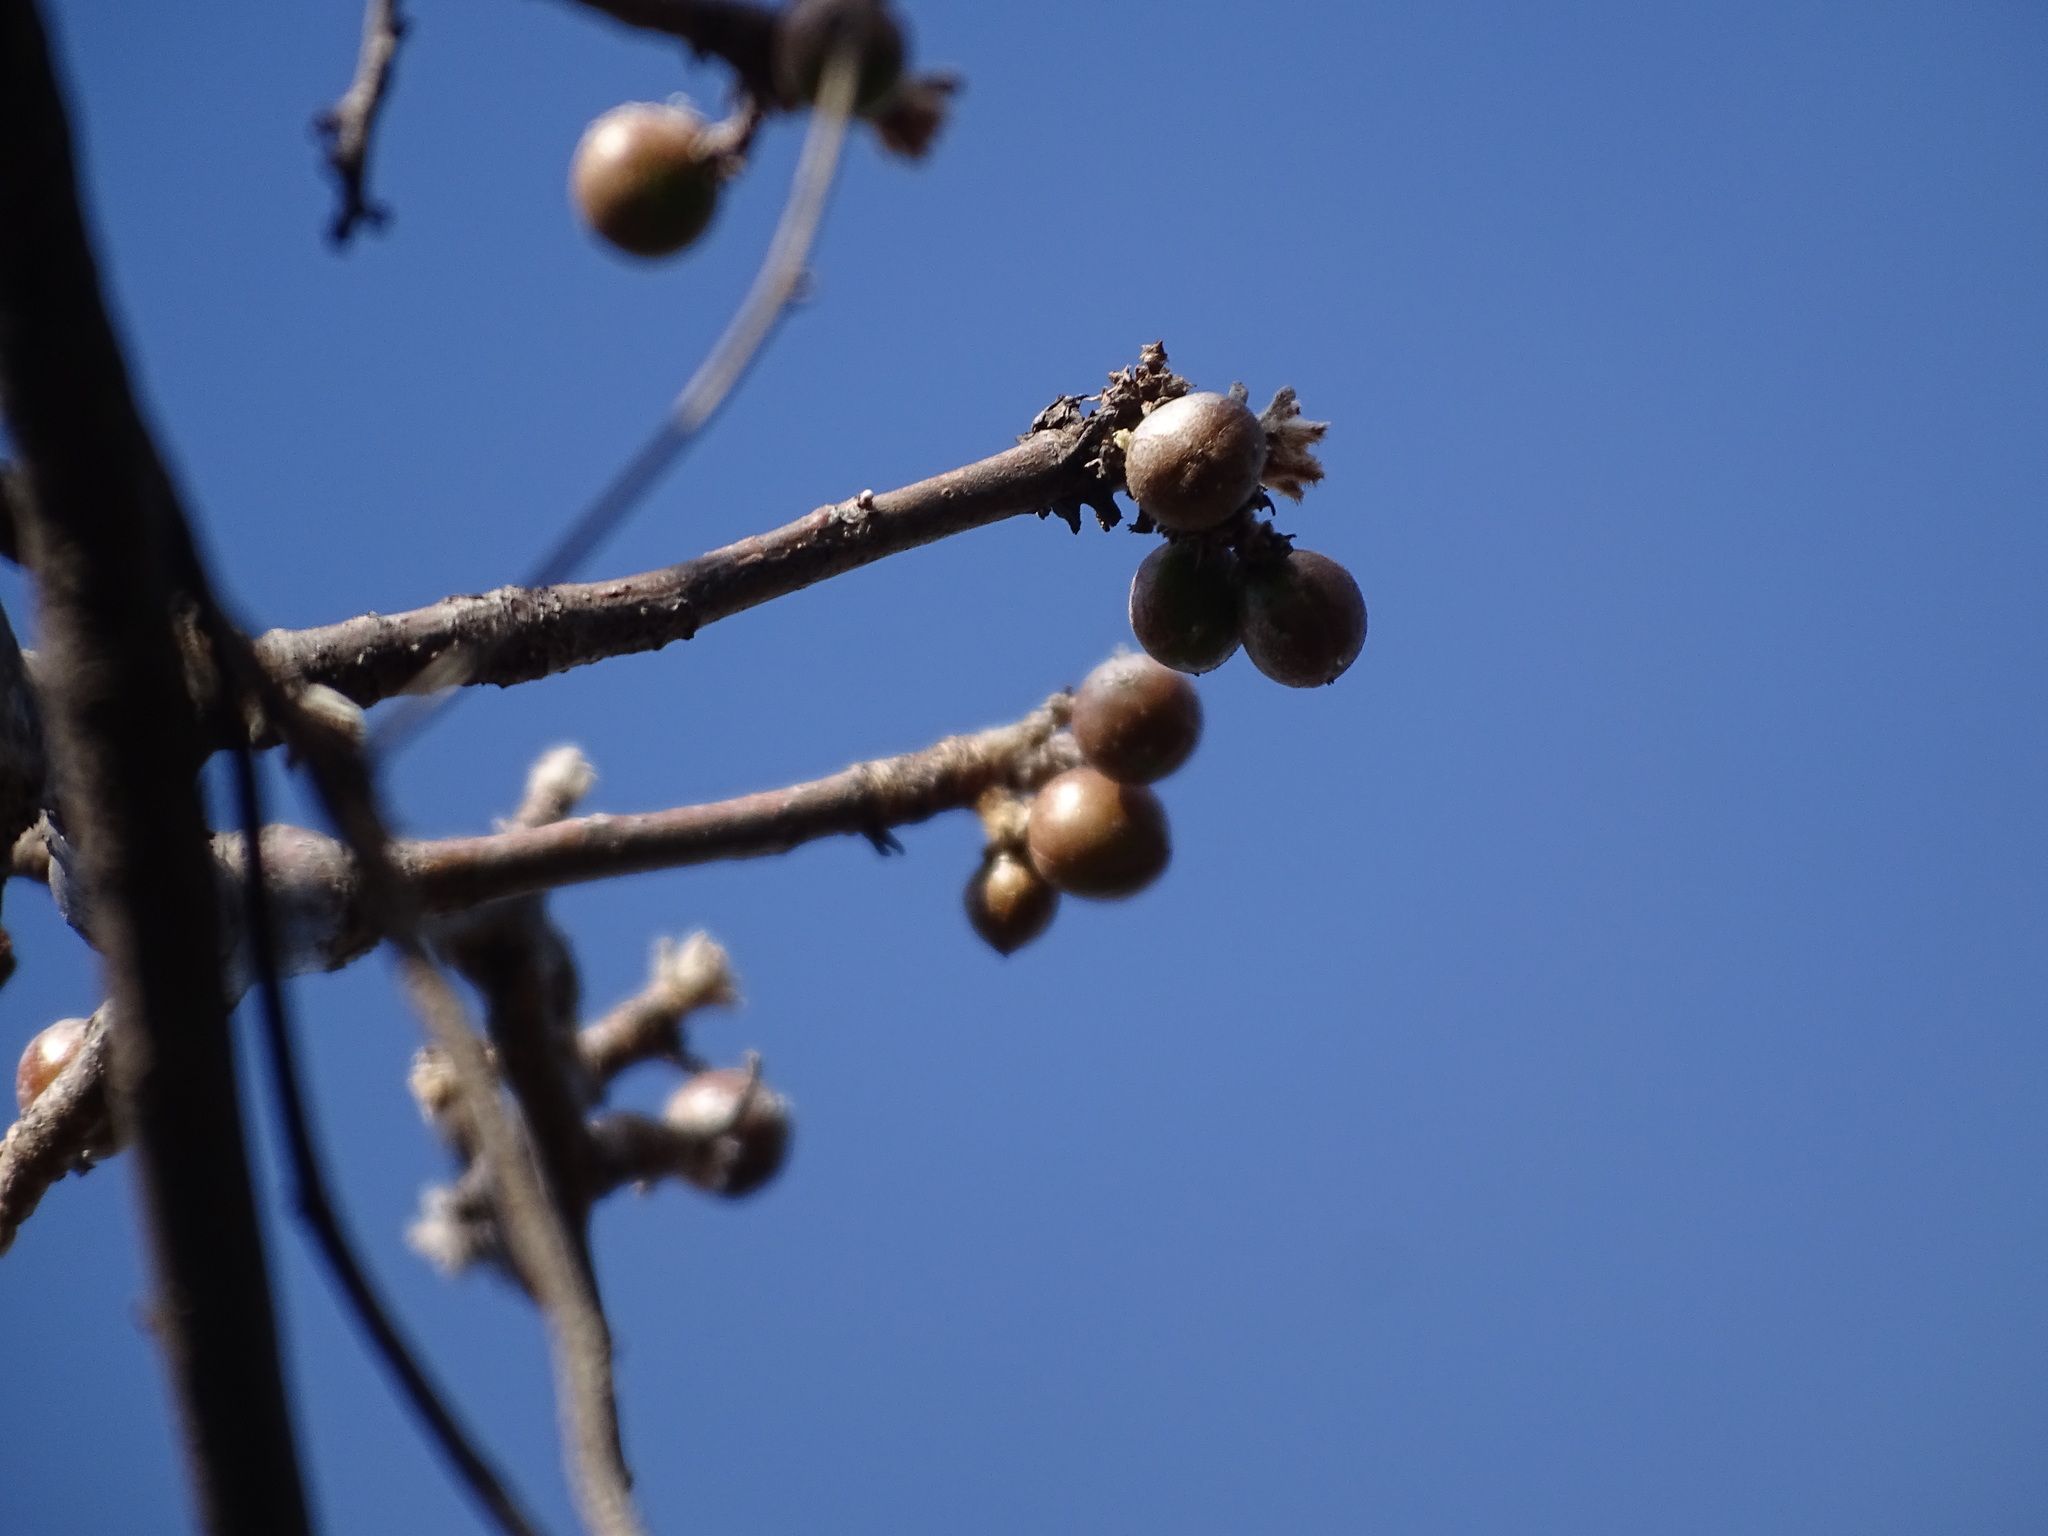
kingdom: Plantae
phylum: Tracheophyta
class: Magnoliopsida
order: Sapindales
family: Burseraceae
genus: Bursera
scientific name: Bursera palmeri
